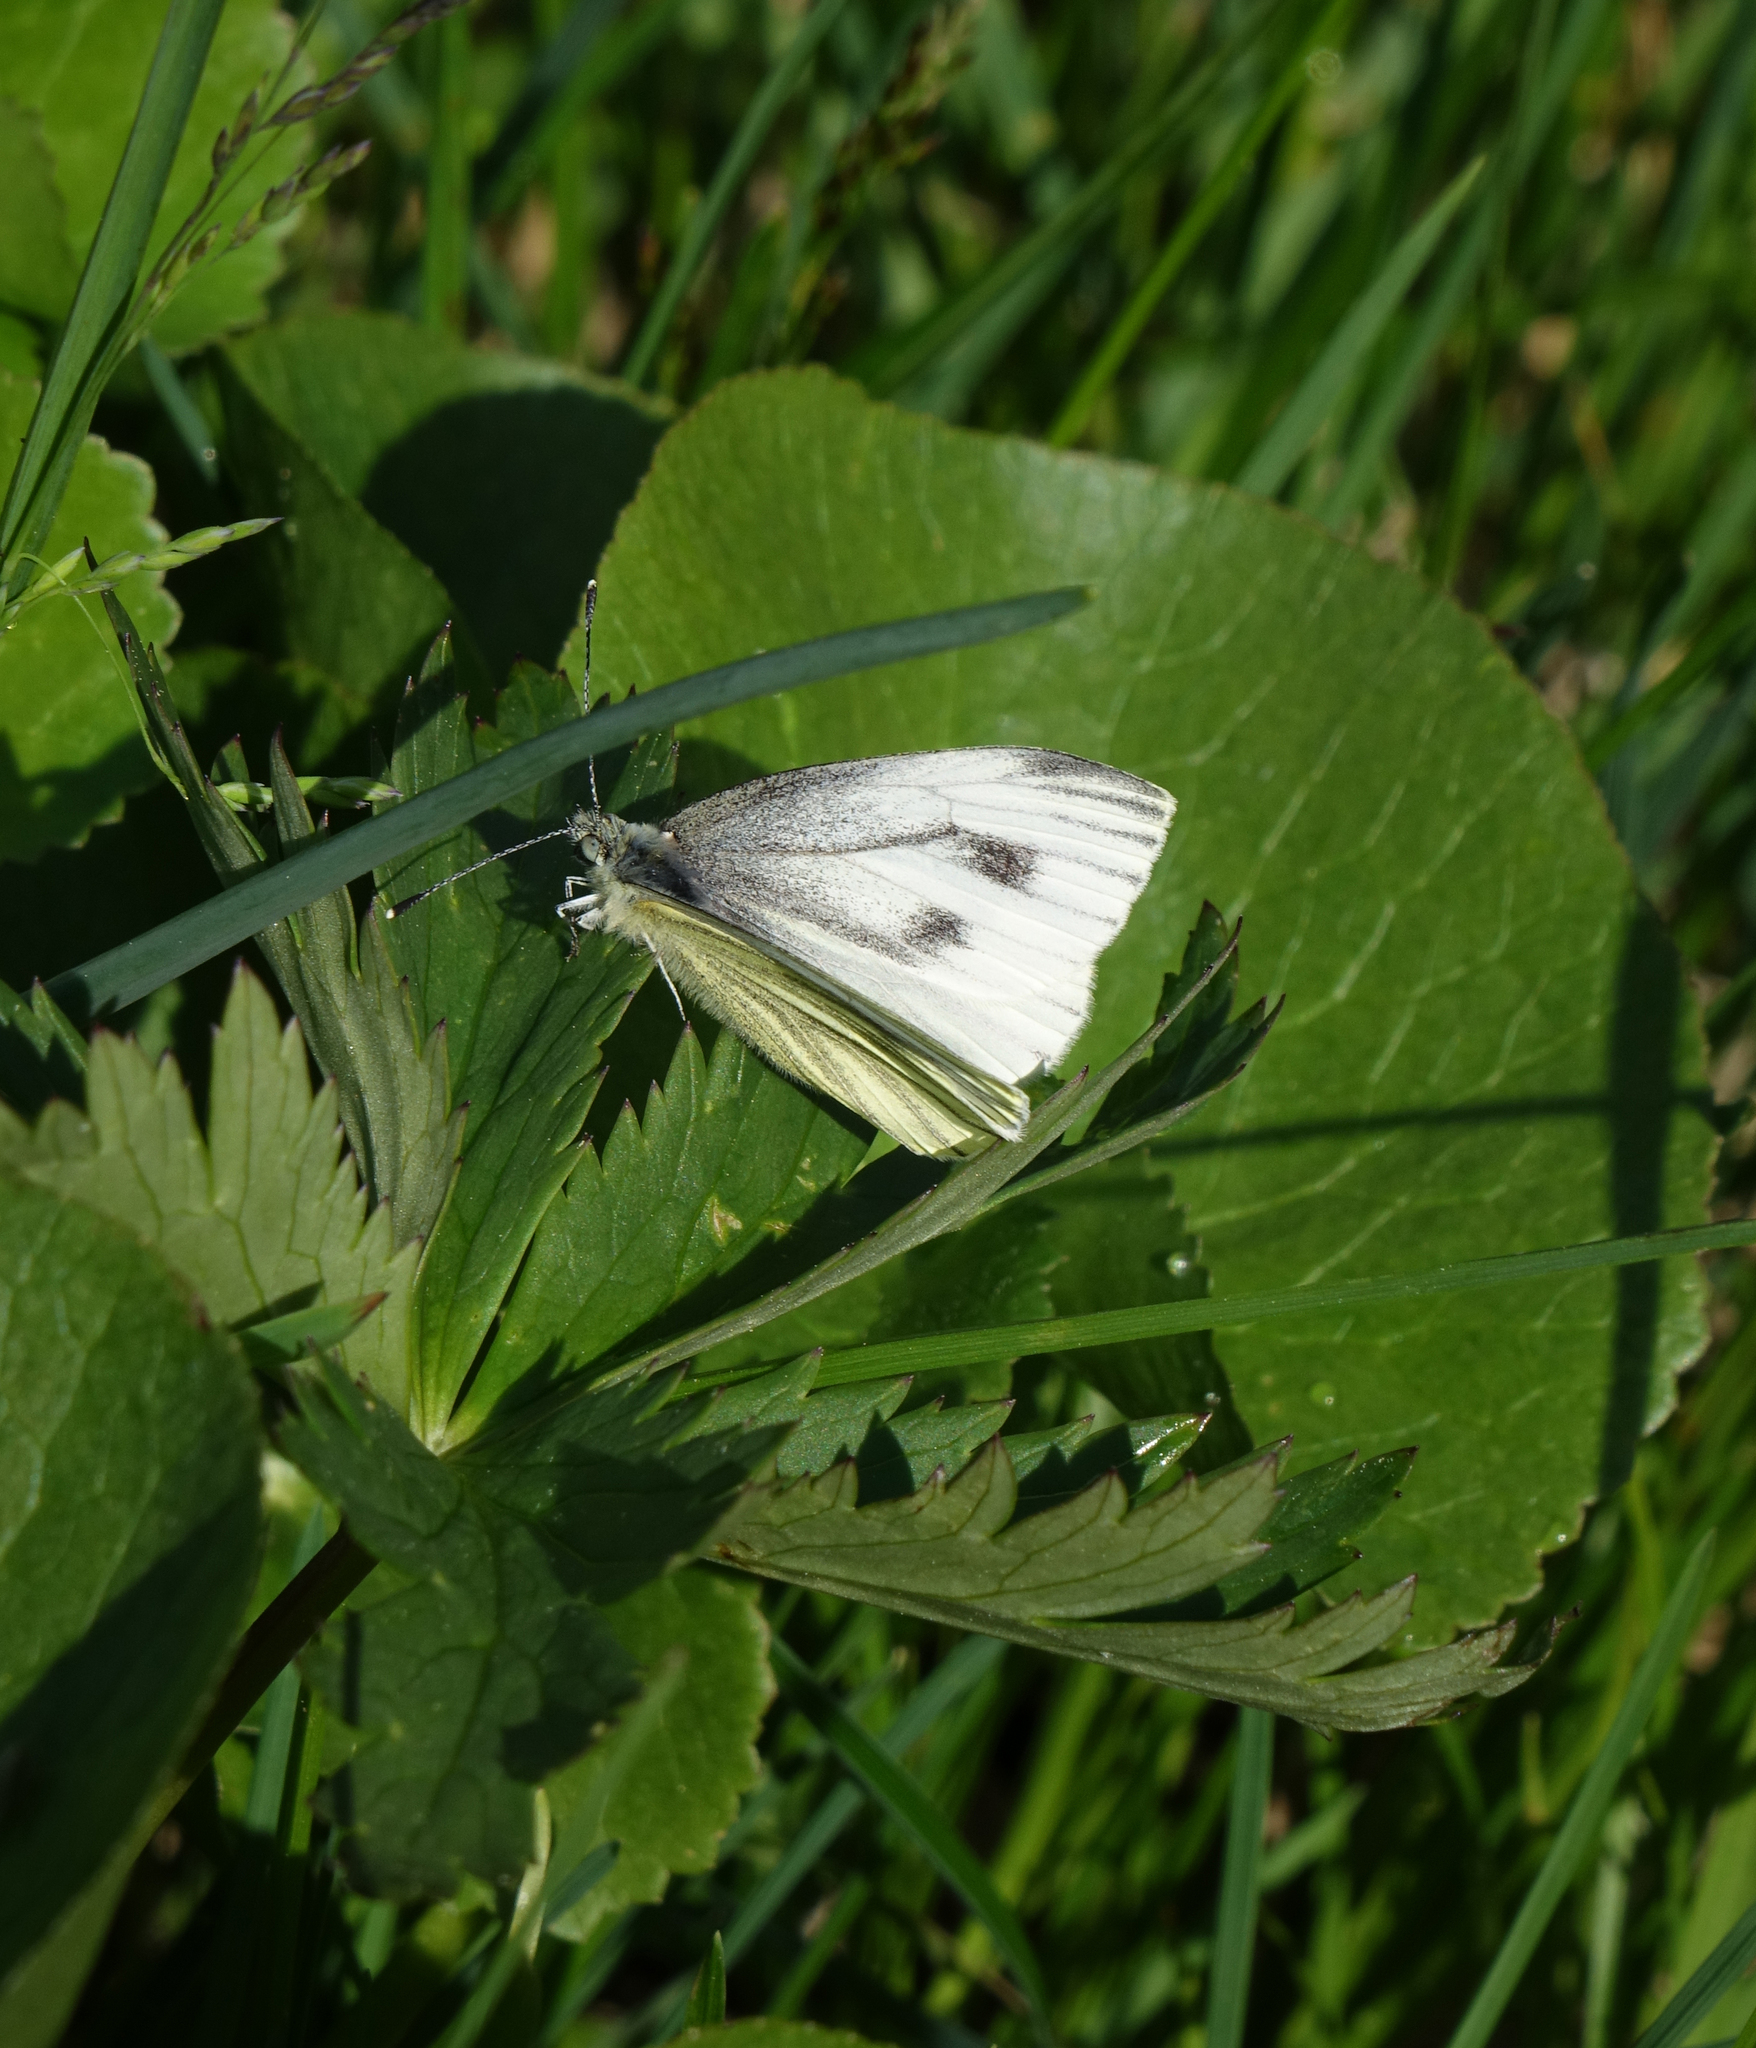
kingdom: Animalia
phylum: Arthropoda
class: Insecta
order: Lepidoptera
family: Pieridae
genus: Pieris
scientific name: Pieris napi
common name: Green-veined white
